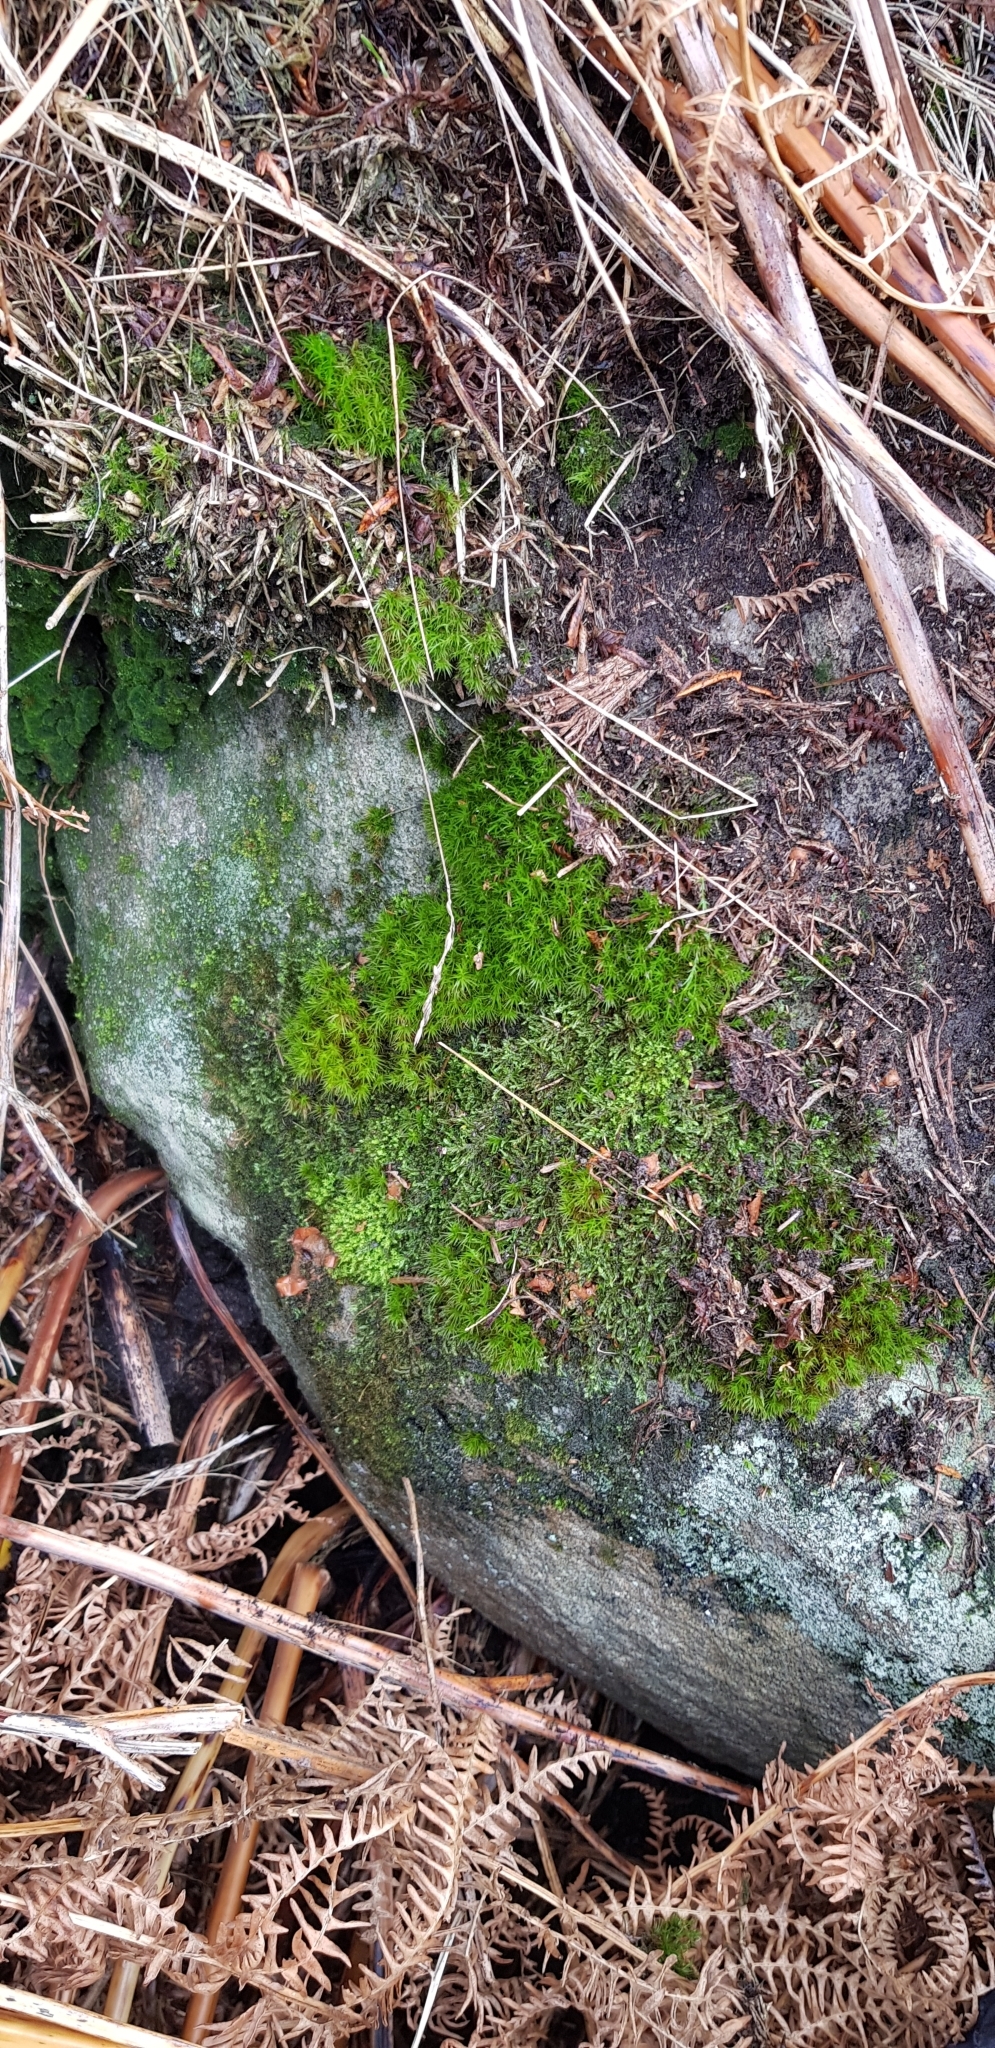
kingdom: Plantae
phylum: Bryophyta
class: Bryopsida
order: Aulacomniales
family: Aulacomniaceae
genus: Aulacomnium
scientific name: Aulacomnium androgynum
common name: Little groove moss
